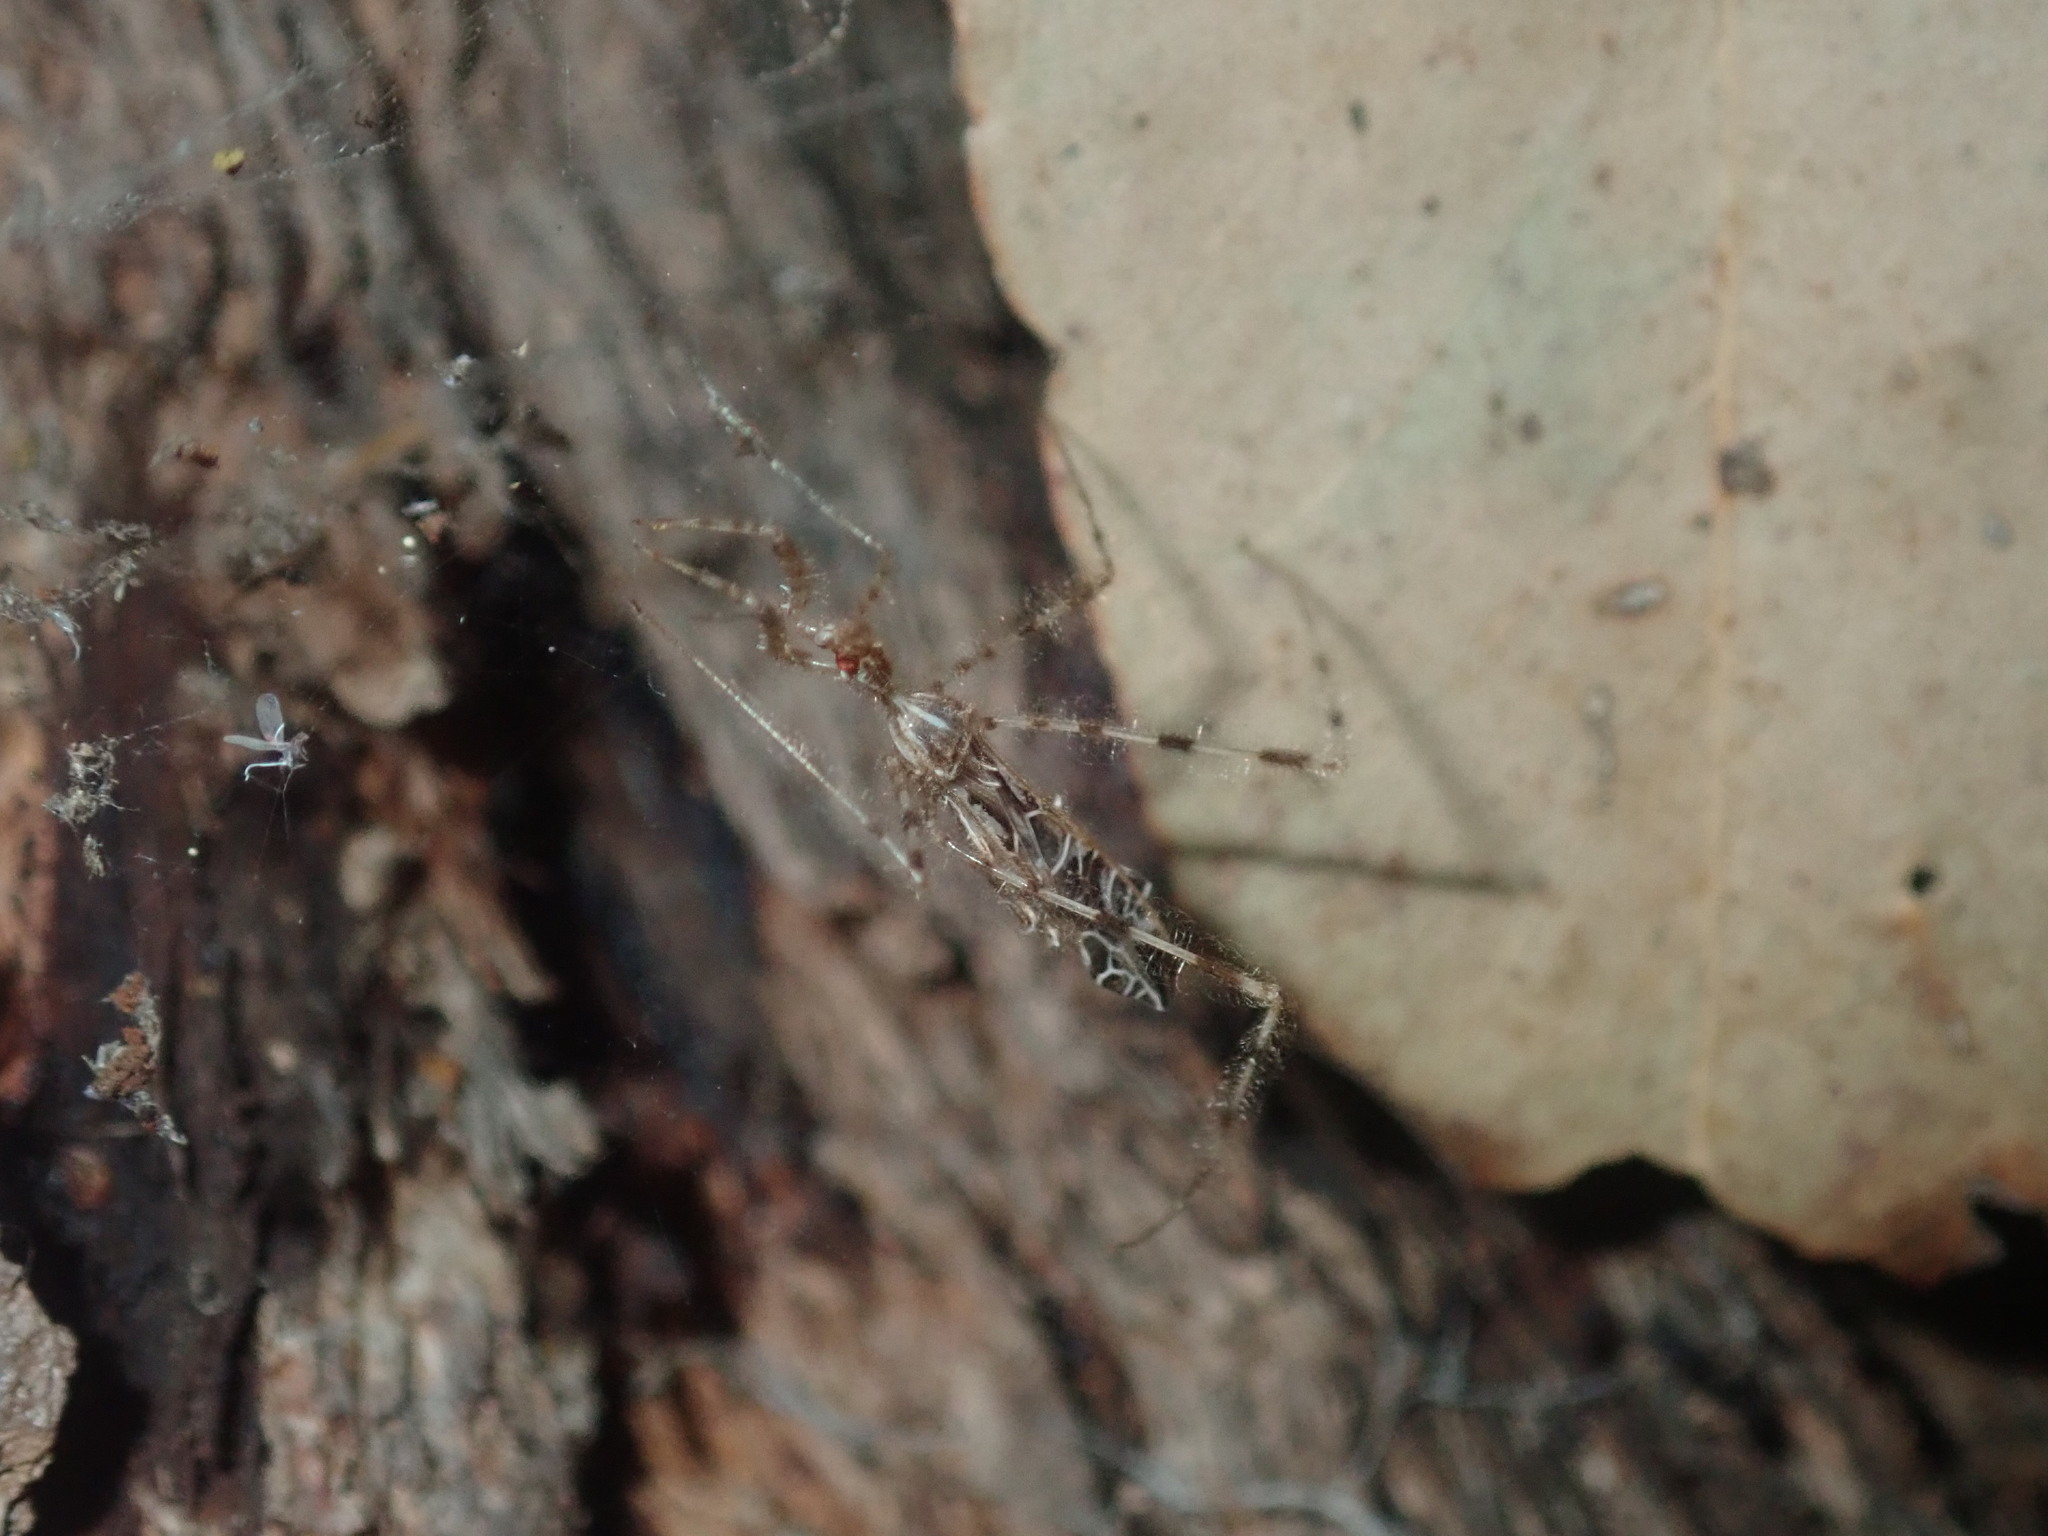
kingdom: Animalia
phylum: Arthropoda
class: Insecta
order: Hemiptera
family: Reduviidae
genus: Stenolemus
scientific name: Stenolemus bituberus
